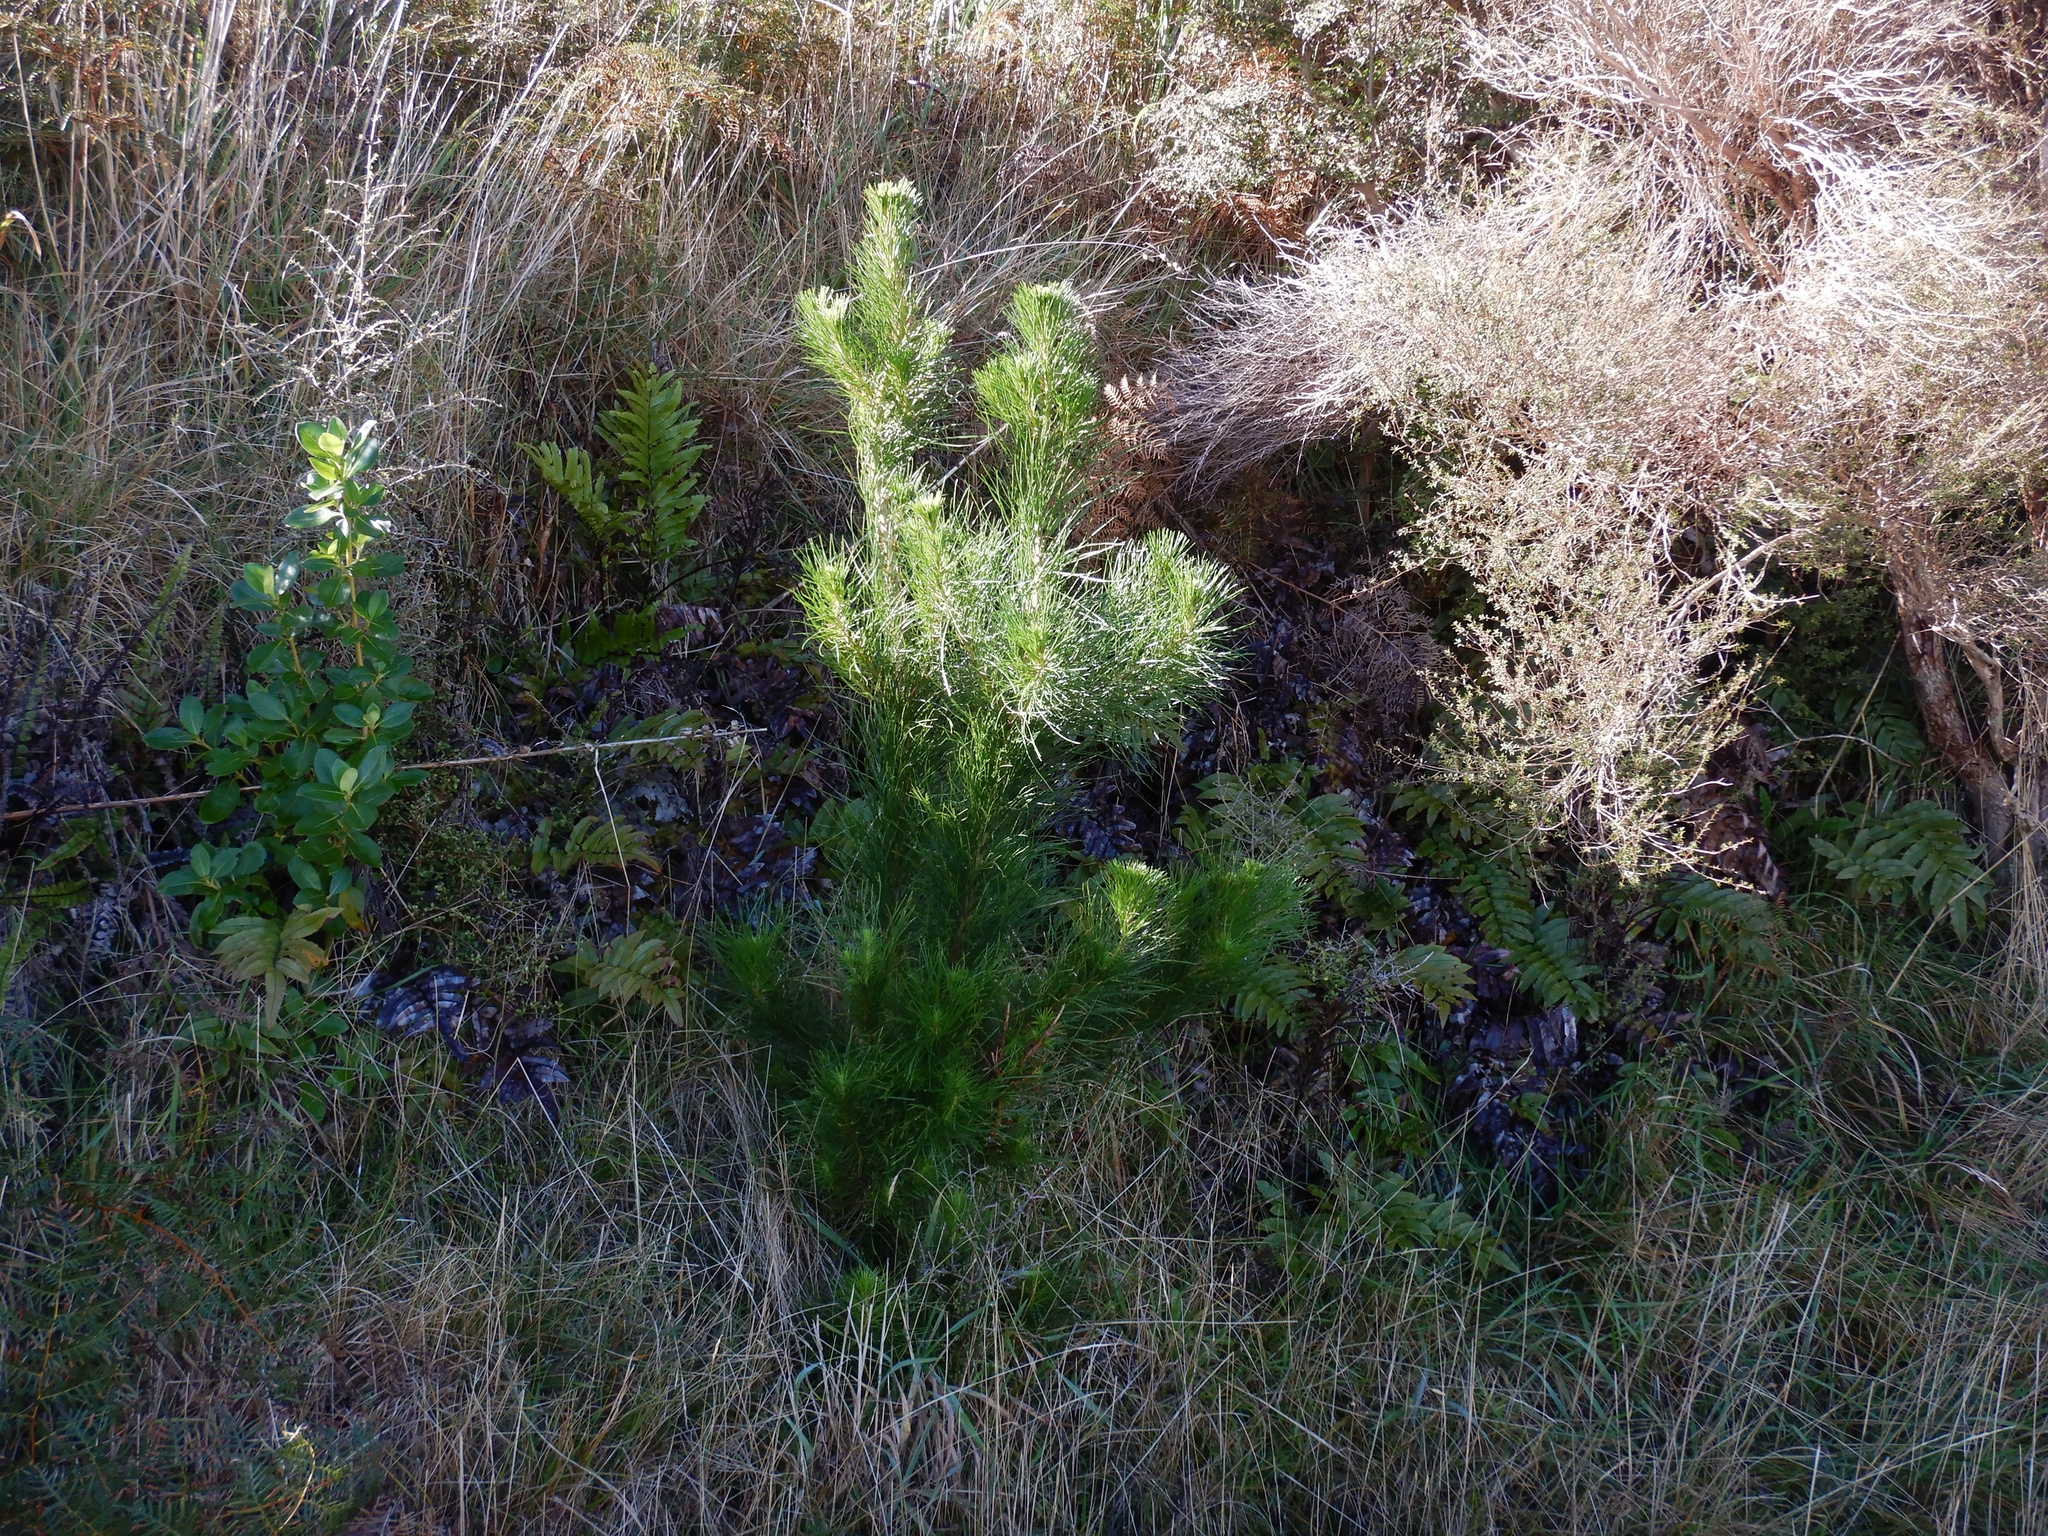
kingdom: Plantae
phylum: Tracheophyta
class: Pinopsida
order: Pinales
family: Pinaceae
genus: Pinus
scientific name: Pinus radiata
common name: Monterey pine
